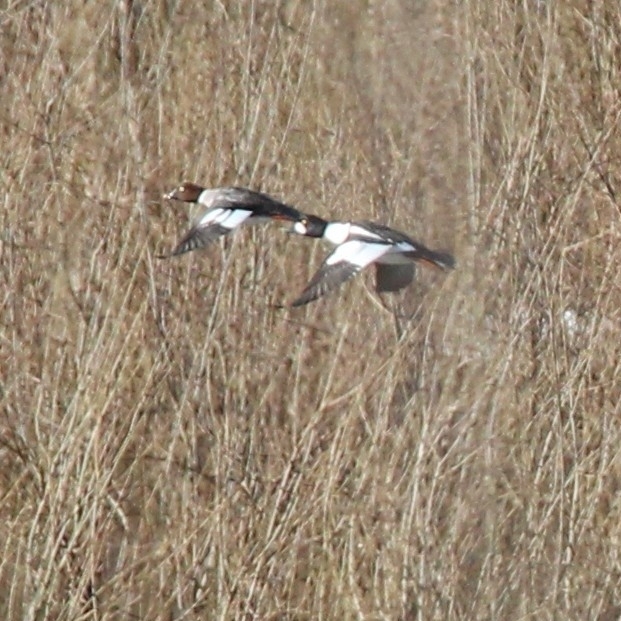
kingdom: Animalia
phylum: Chordata
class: Aves
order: Anseriformes
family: Anatidae
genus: Bucephala
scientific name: Bucephala clangula
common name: Common goldeneye
